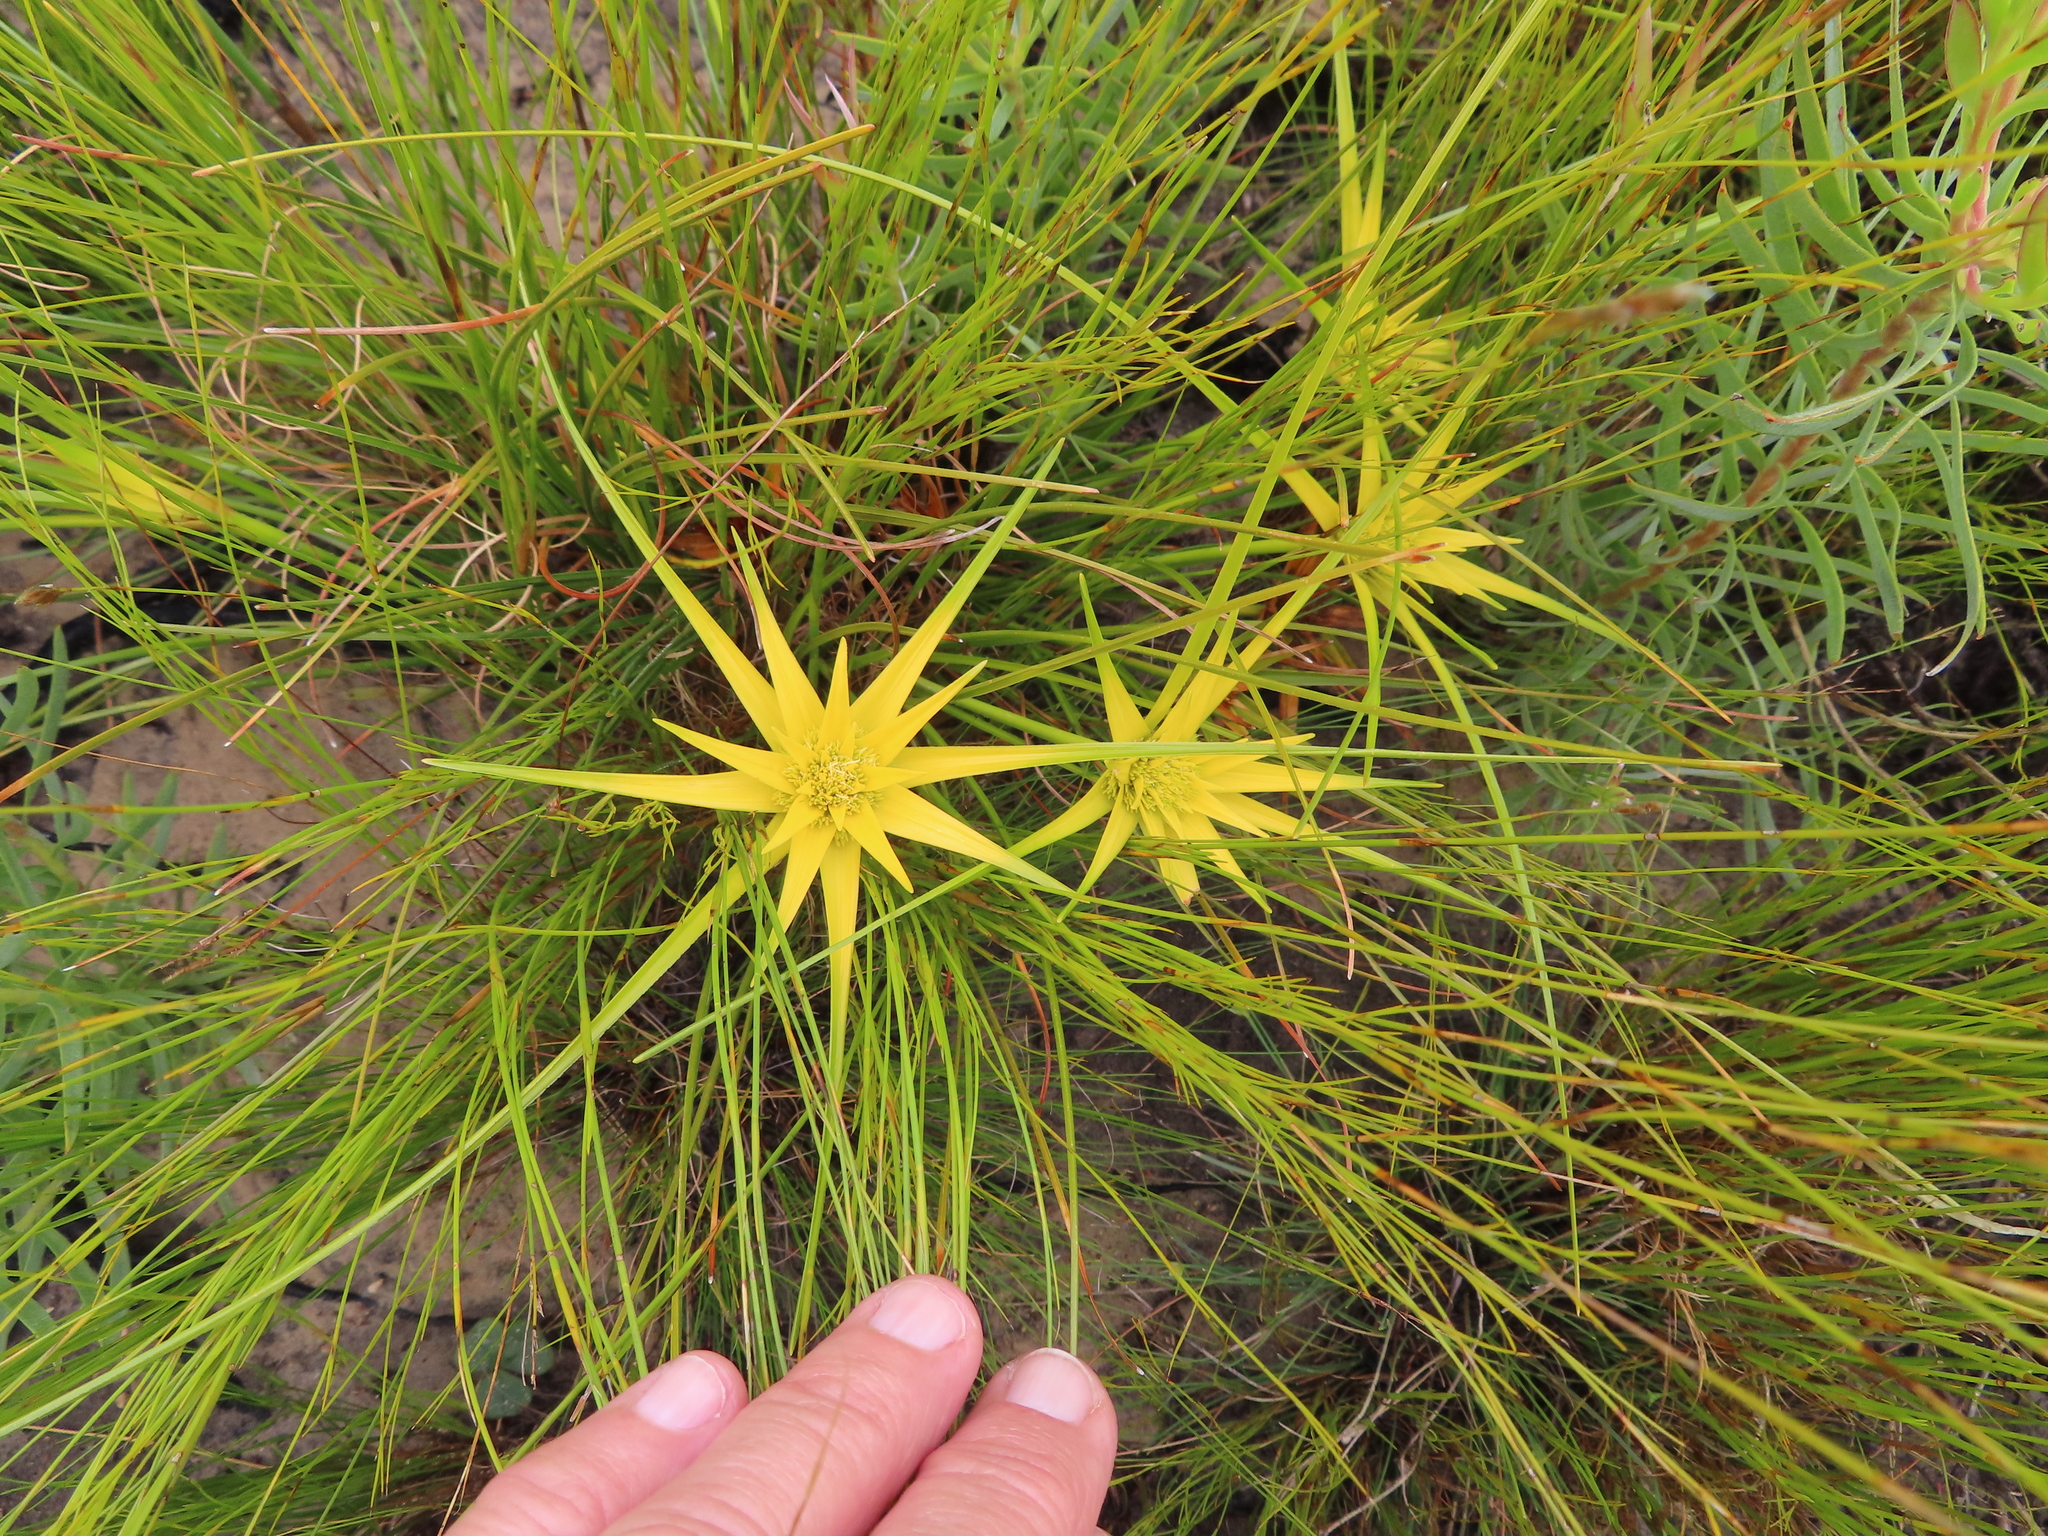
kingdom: Plantae
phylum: Tracheophyta
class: Liliopsida
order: Poales
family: Cyperaceae
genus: Ficinia
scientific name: Ficinia radiata
